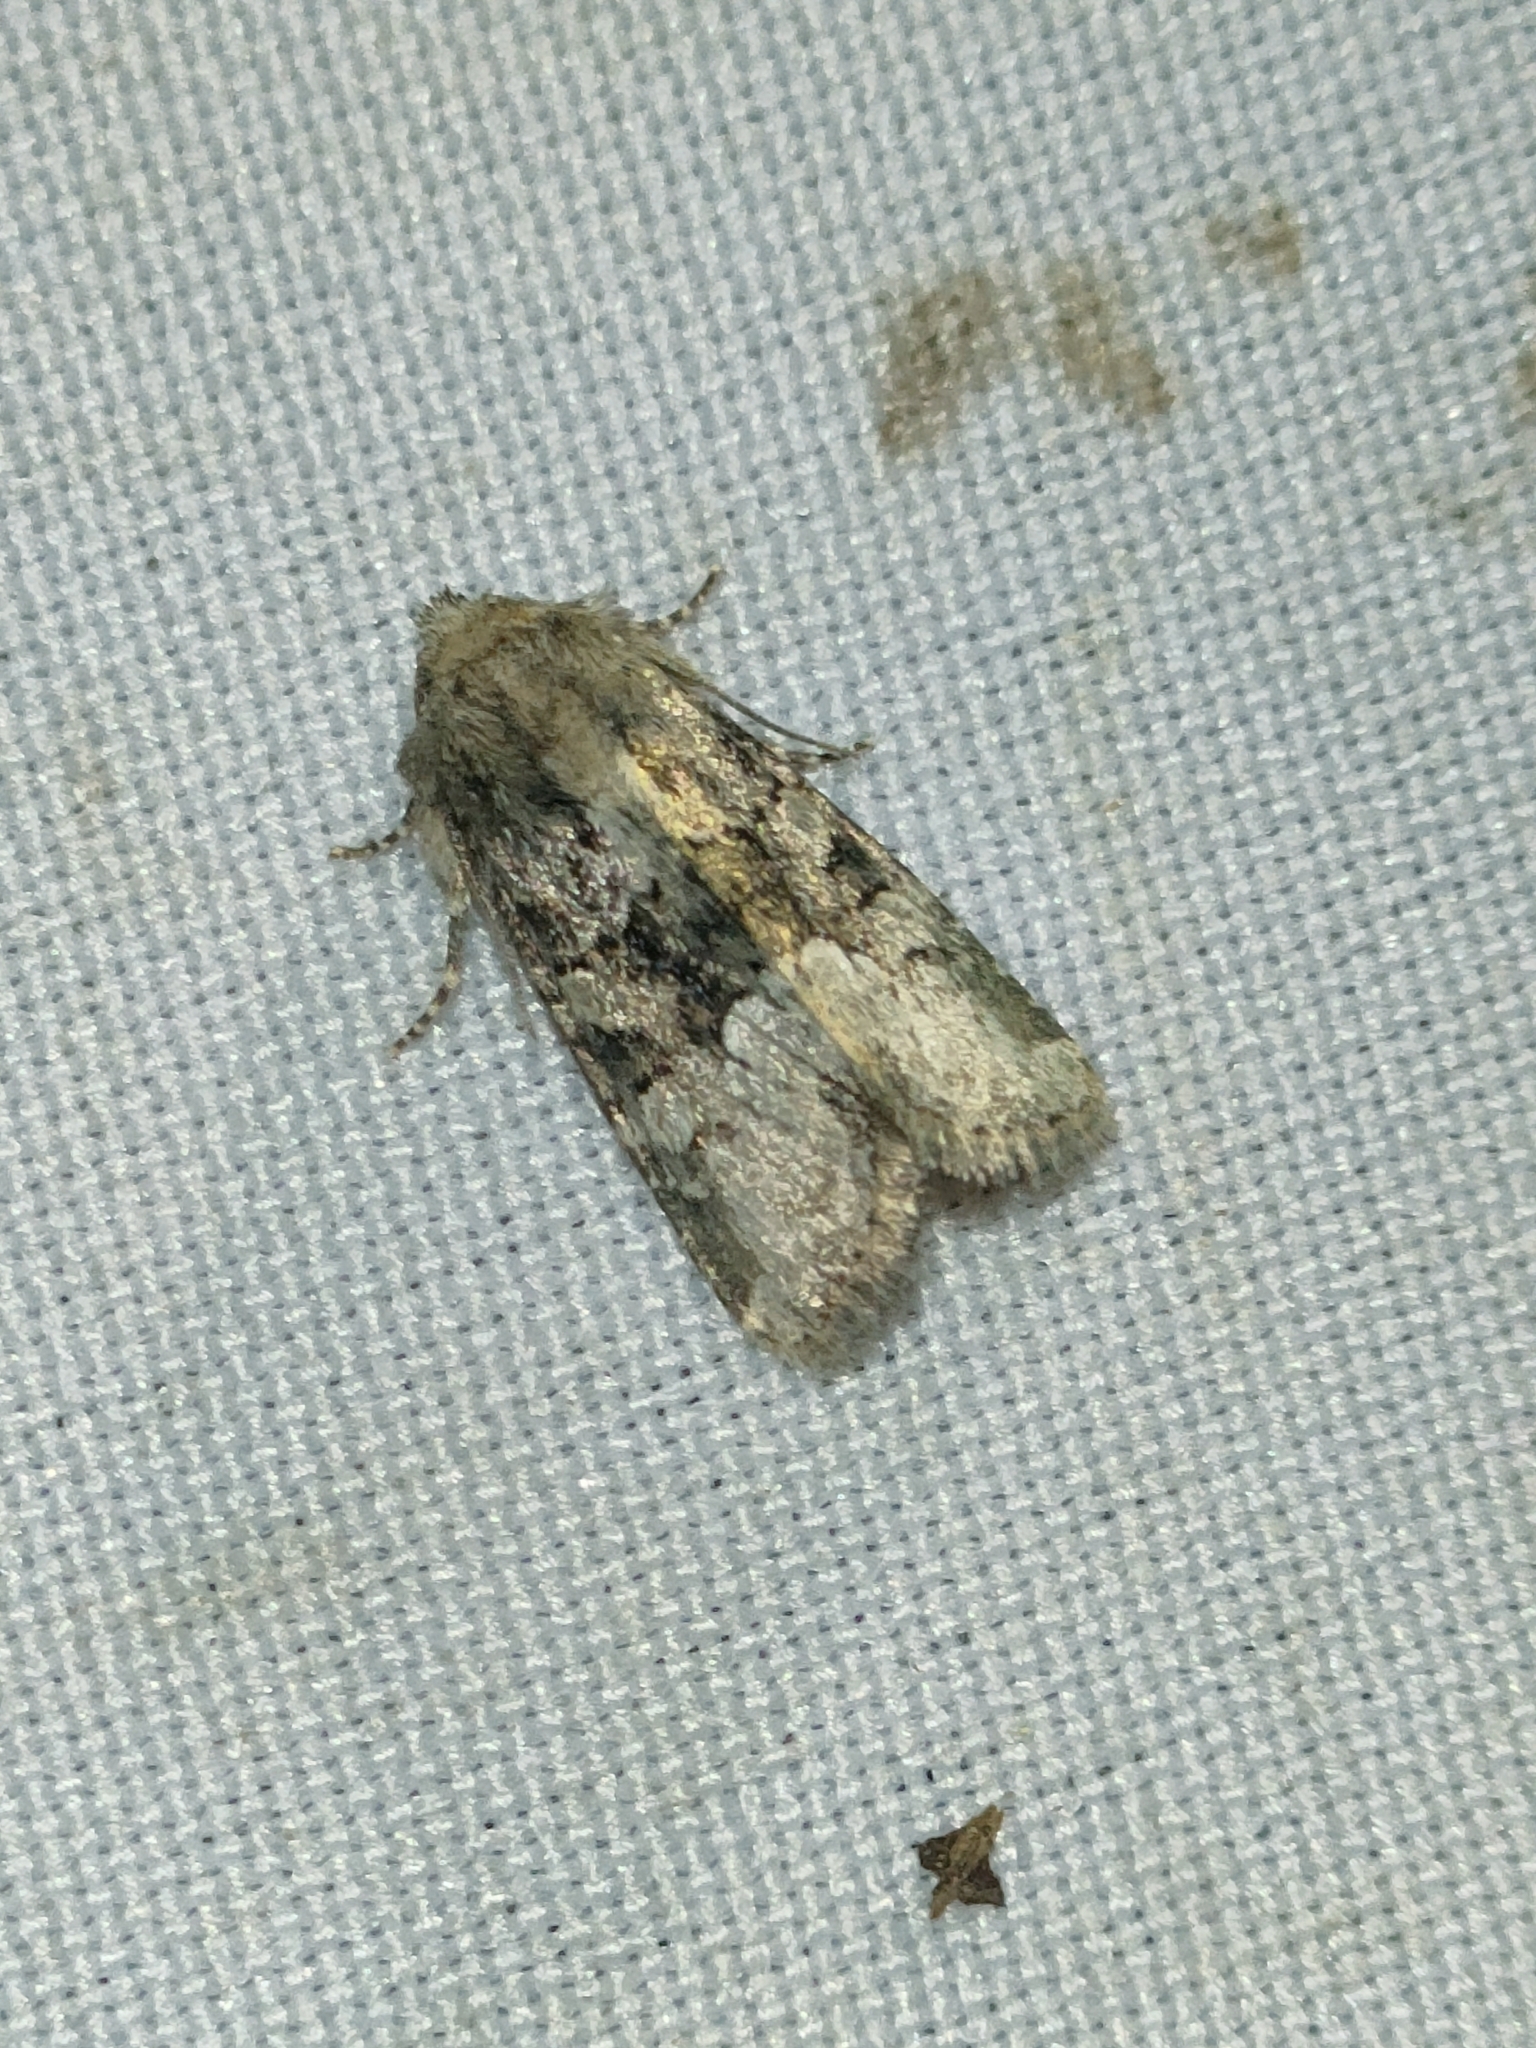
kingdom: Animalia
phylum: Arthropoda
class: Insecta
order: Lepidoptera
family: Noctuidae
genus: Apamea
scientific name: Apamea illyria
